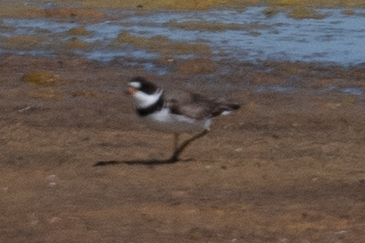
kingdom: Animalia
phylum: Chordata
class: Aves
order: Charadriiformes
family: Charadriidae
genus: Charadrius
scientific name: Charadrius semipalmatus
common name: Semipalmated plover
